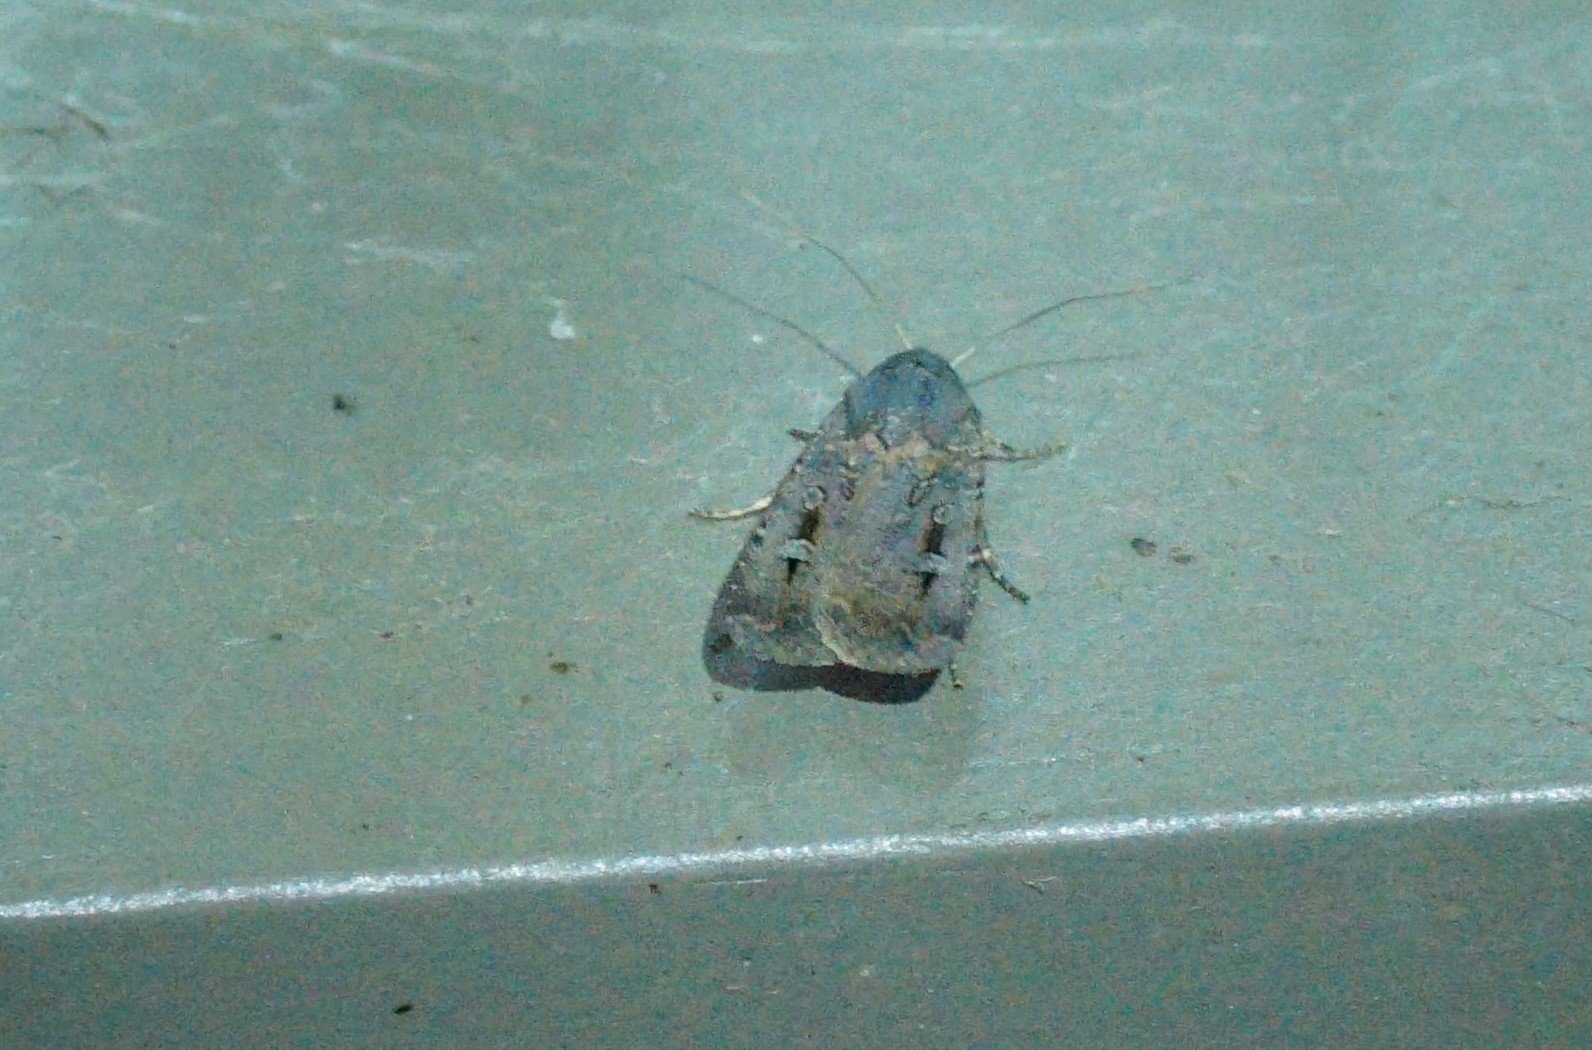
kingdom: Animalia
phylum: Arthropoda
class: Insecta
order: Lepidoptera
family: Noctuidae
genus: Agrotis
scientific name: Agrotis infusa
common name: Bogong moth
